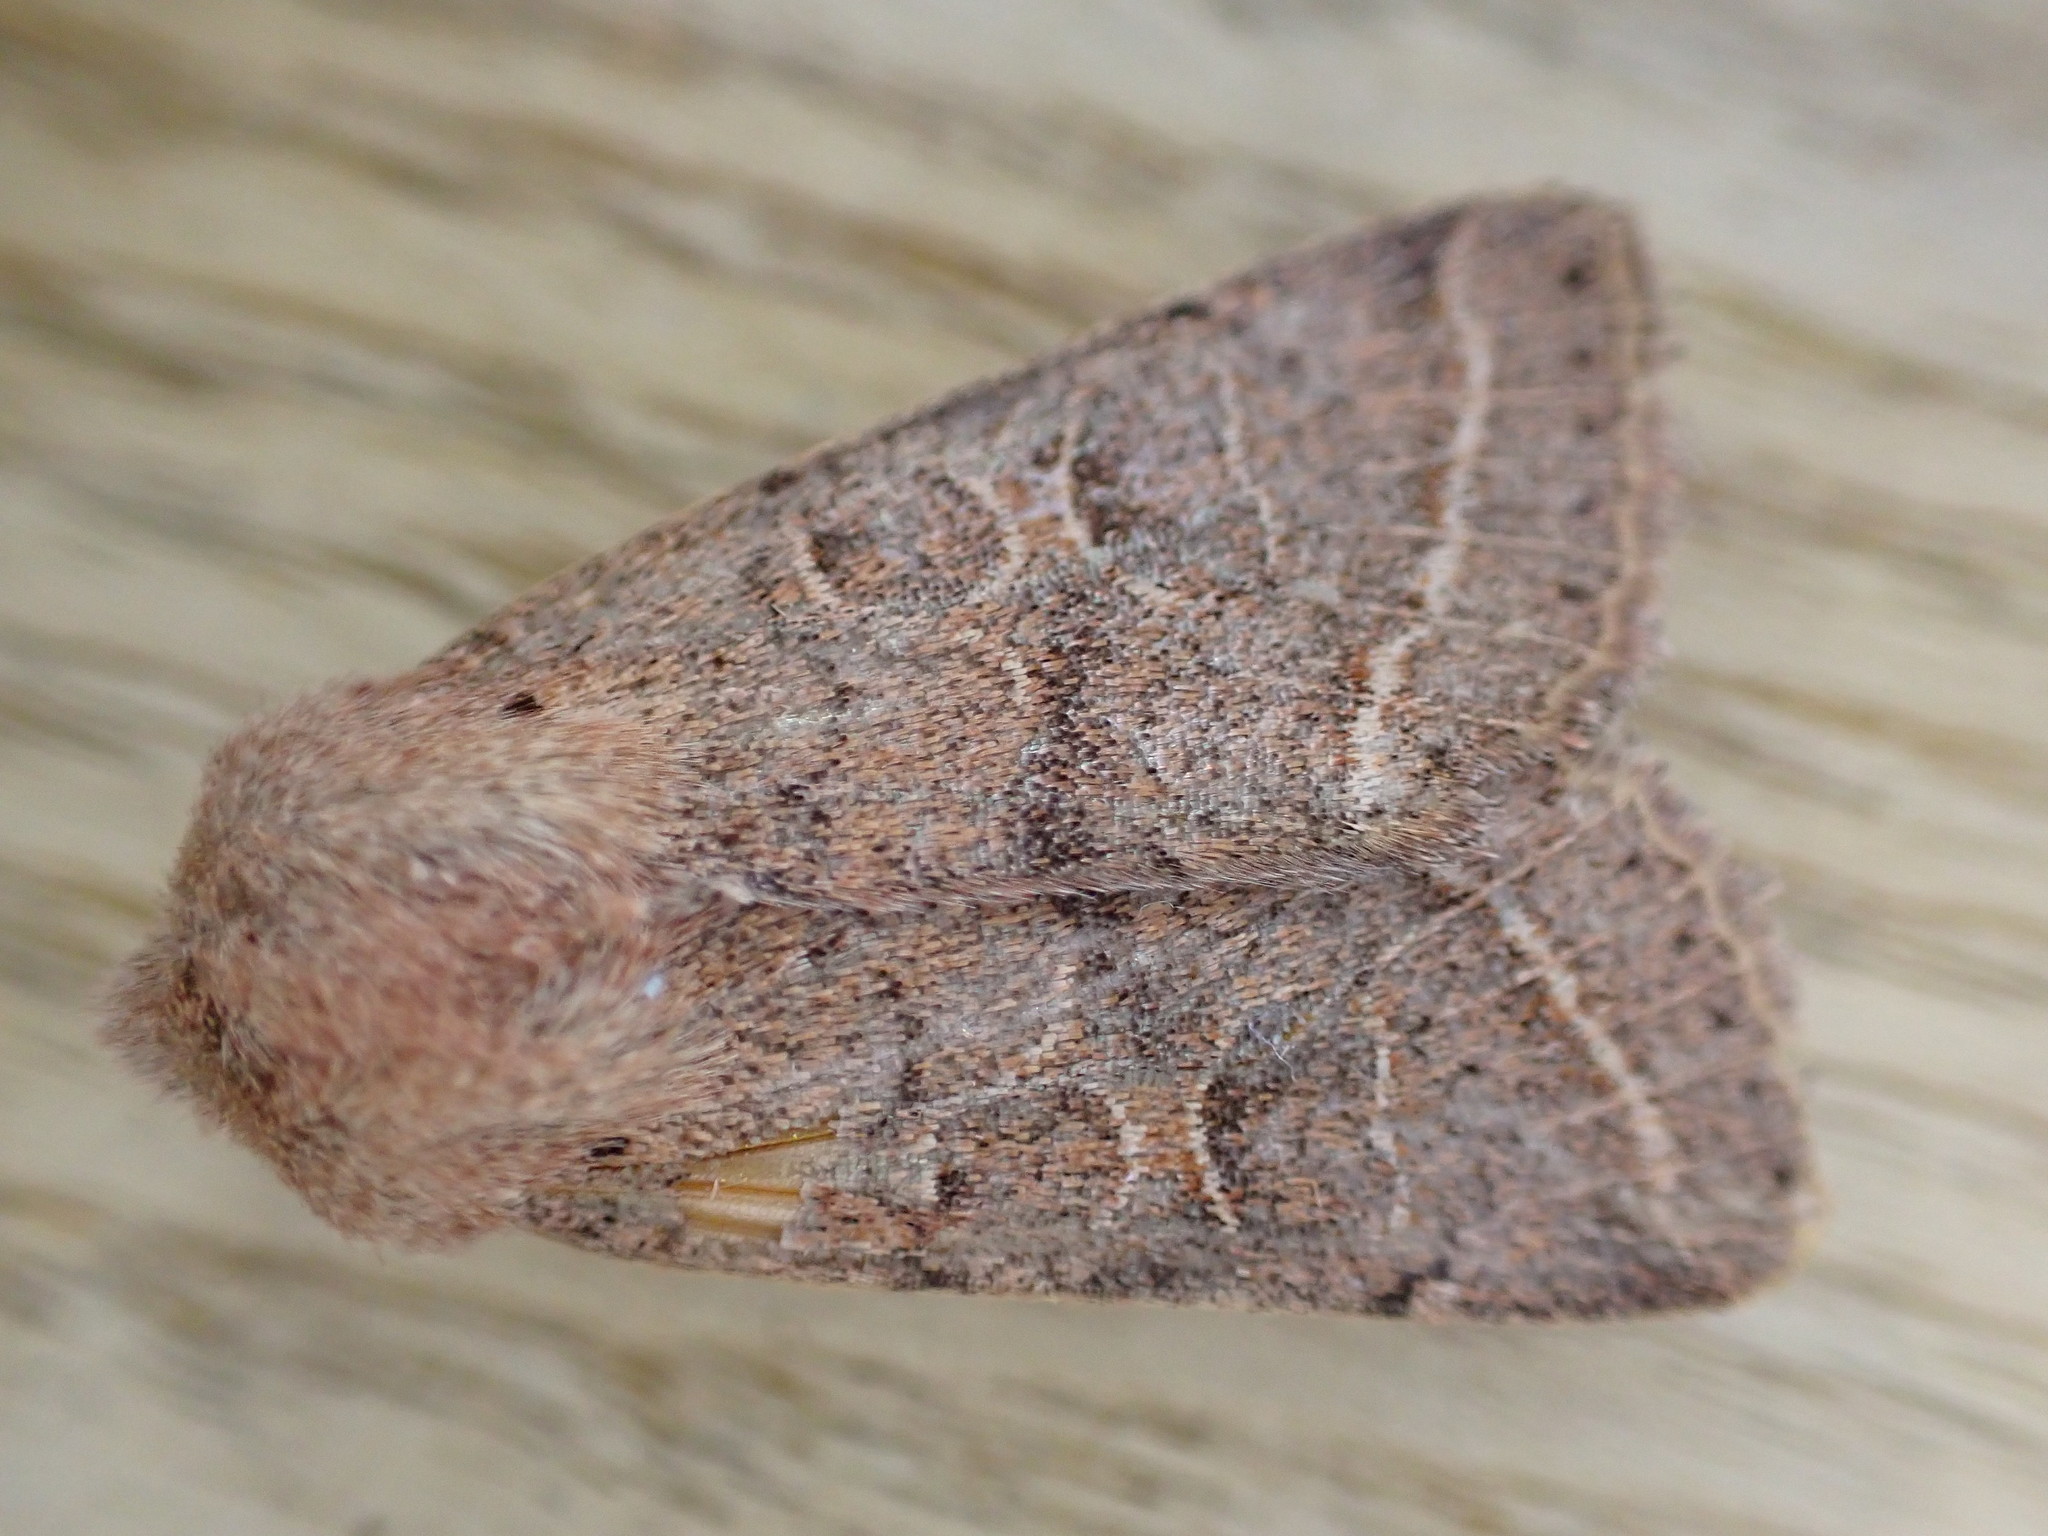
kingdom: Animalia
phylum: Arthropoda
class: Insecta
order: Lepidoptera
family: Noctuidae
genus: Orthosia
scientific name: Orthosia cerasi
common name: Common quaker
